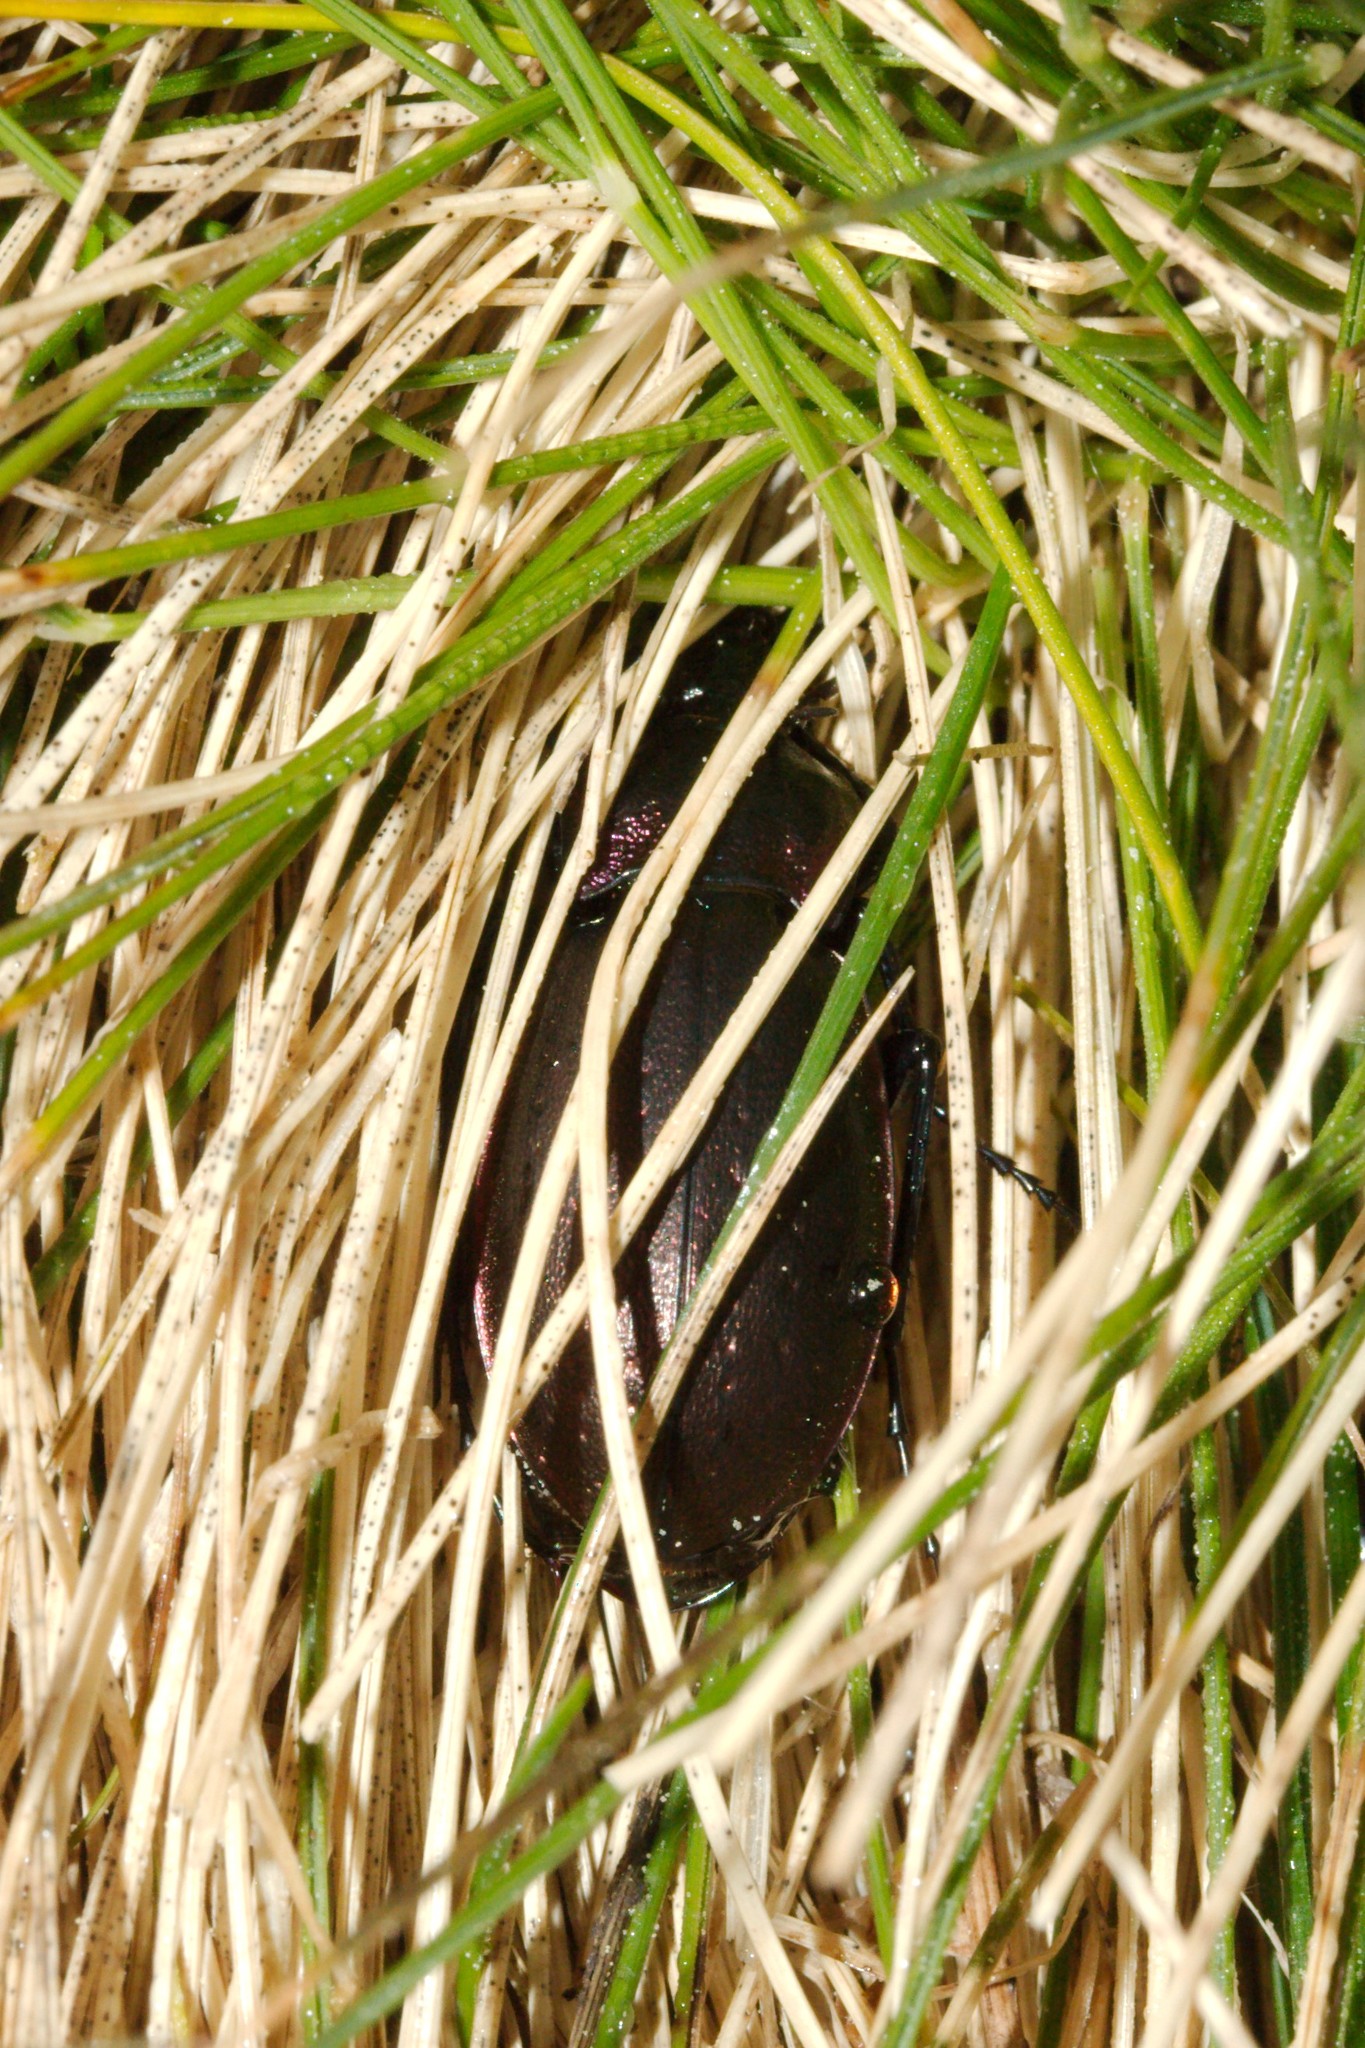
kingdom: Animalia
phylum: Arthropoda
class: Insecta
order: Coleoptera
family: Carabidae
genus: Carabus
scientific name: Carabus nemoralis
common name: European ground beetle
